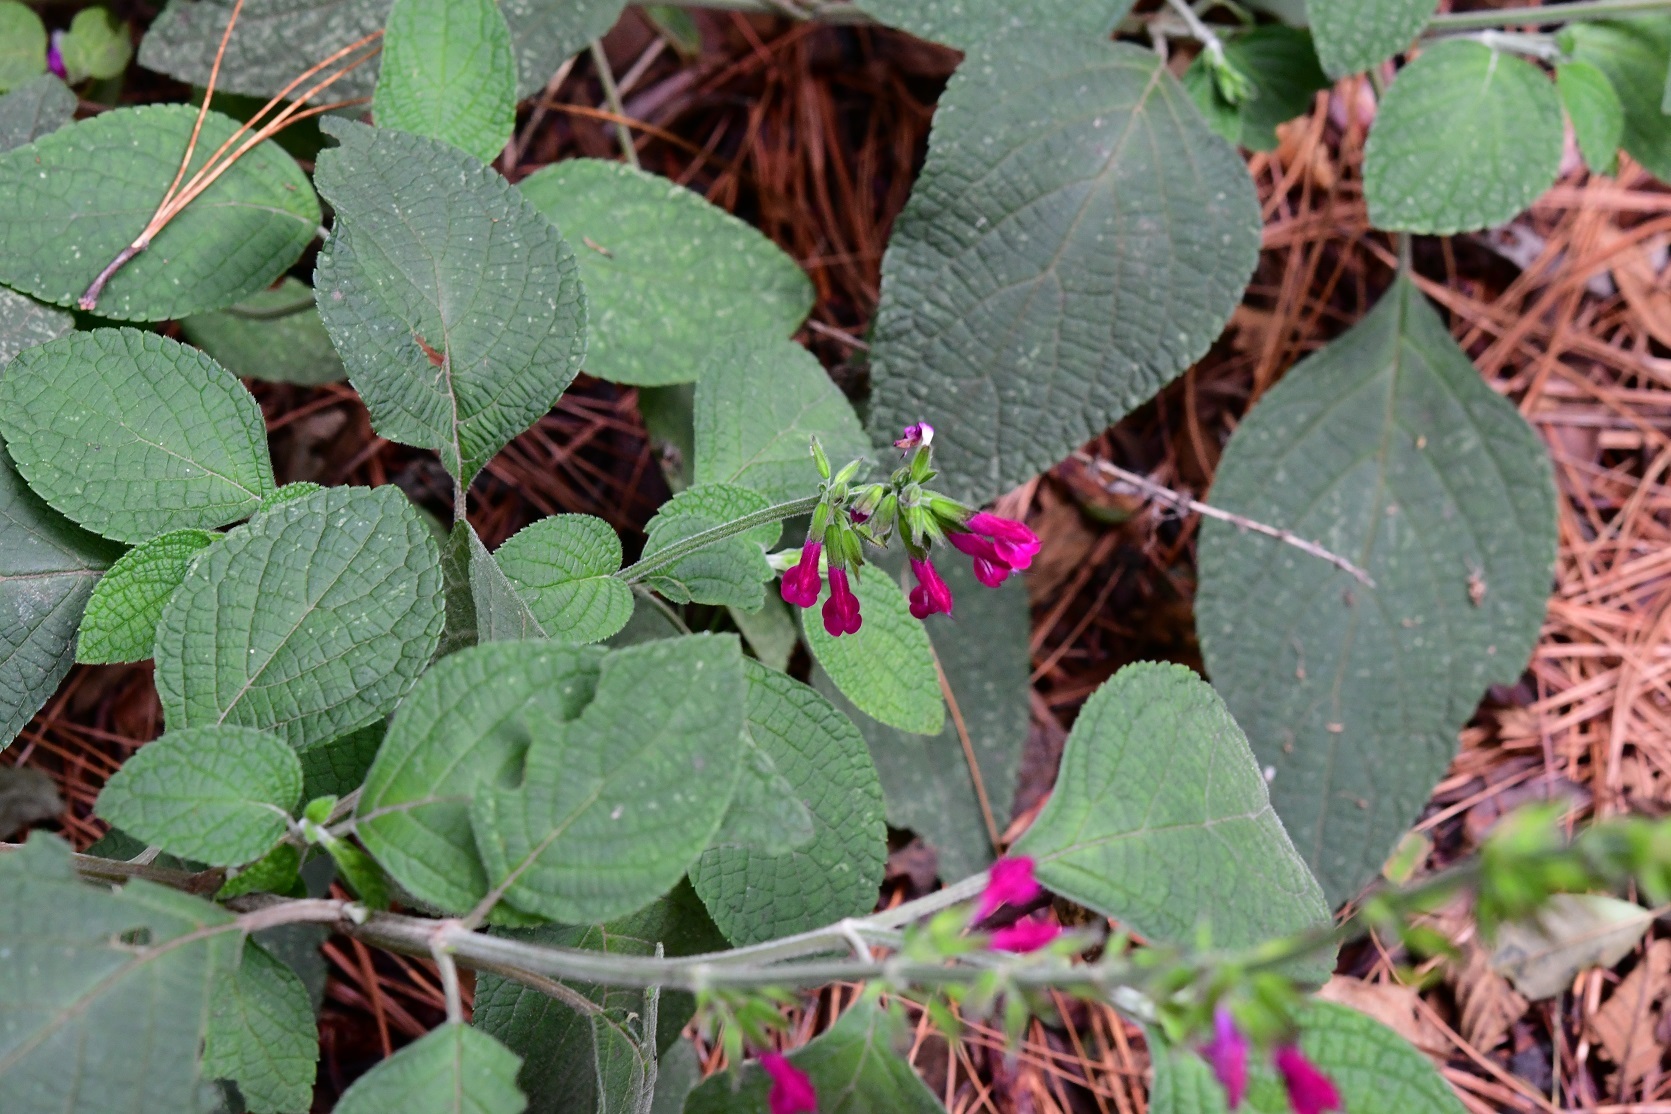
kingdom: Plantae
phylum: Tracheophyta
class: Magnoliopsida
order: Lamiales
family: Lamiaceae
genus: Salvia
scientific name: Salvia chiapensis
